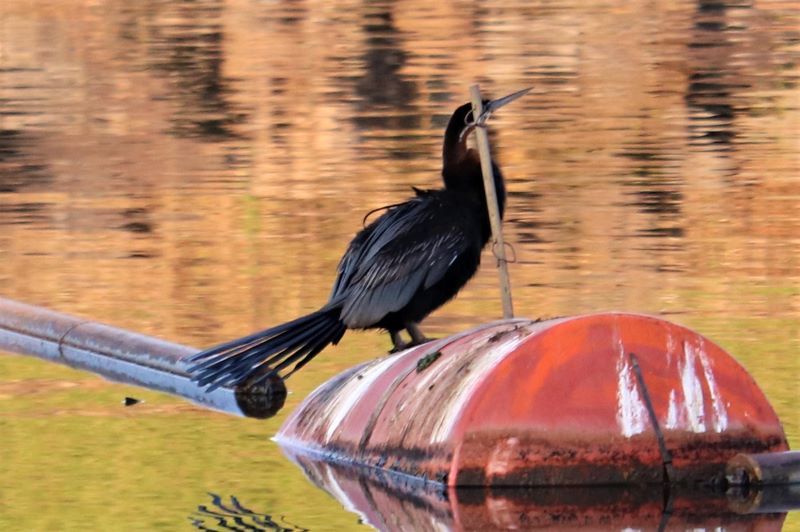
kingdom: Animalia
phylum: Chordata
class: Aves
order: Suliformes
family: Anhingidae
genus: Anhinga
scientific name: Anhinga rufa
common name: African darter
